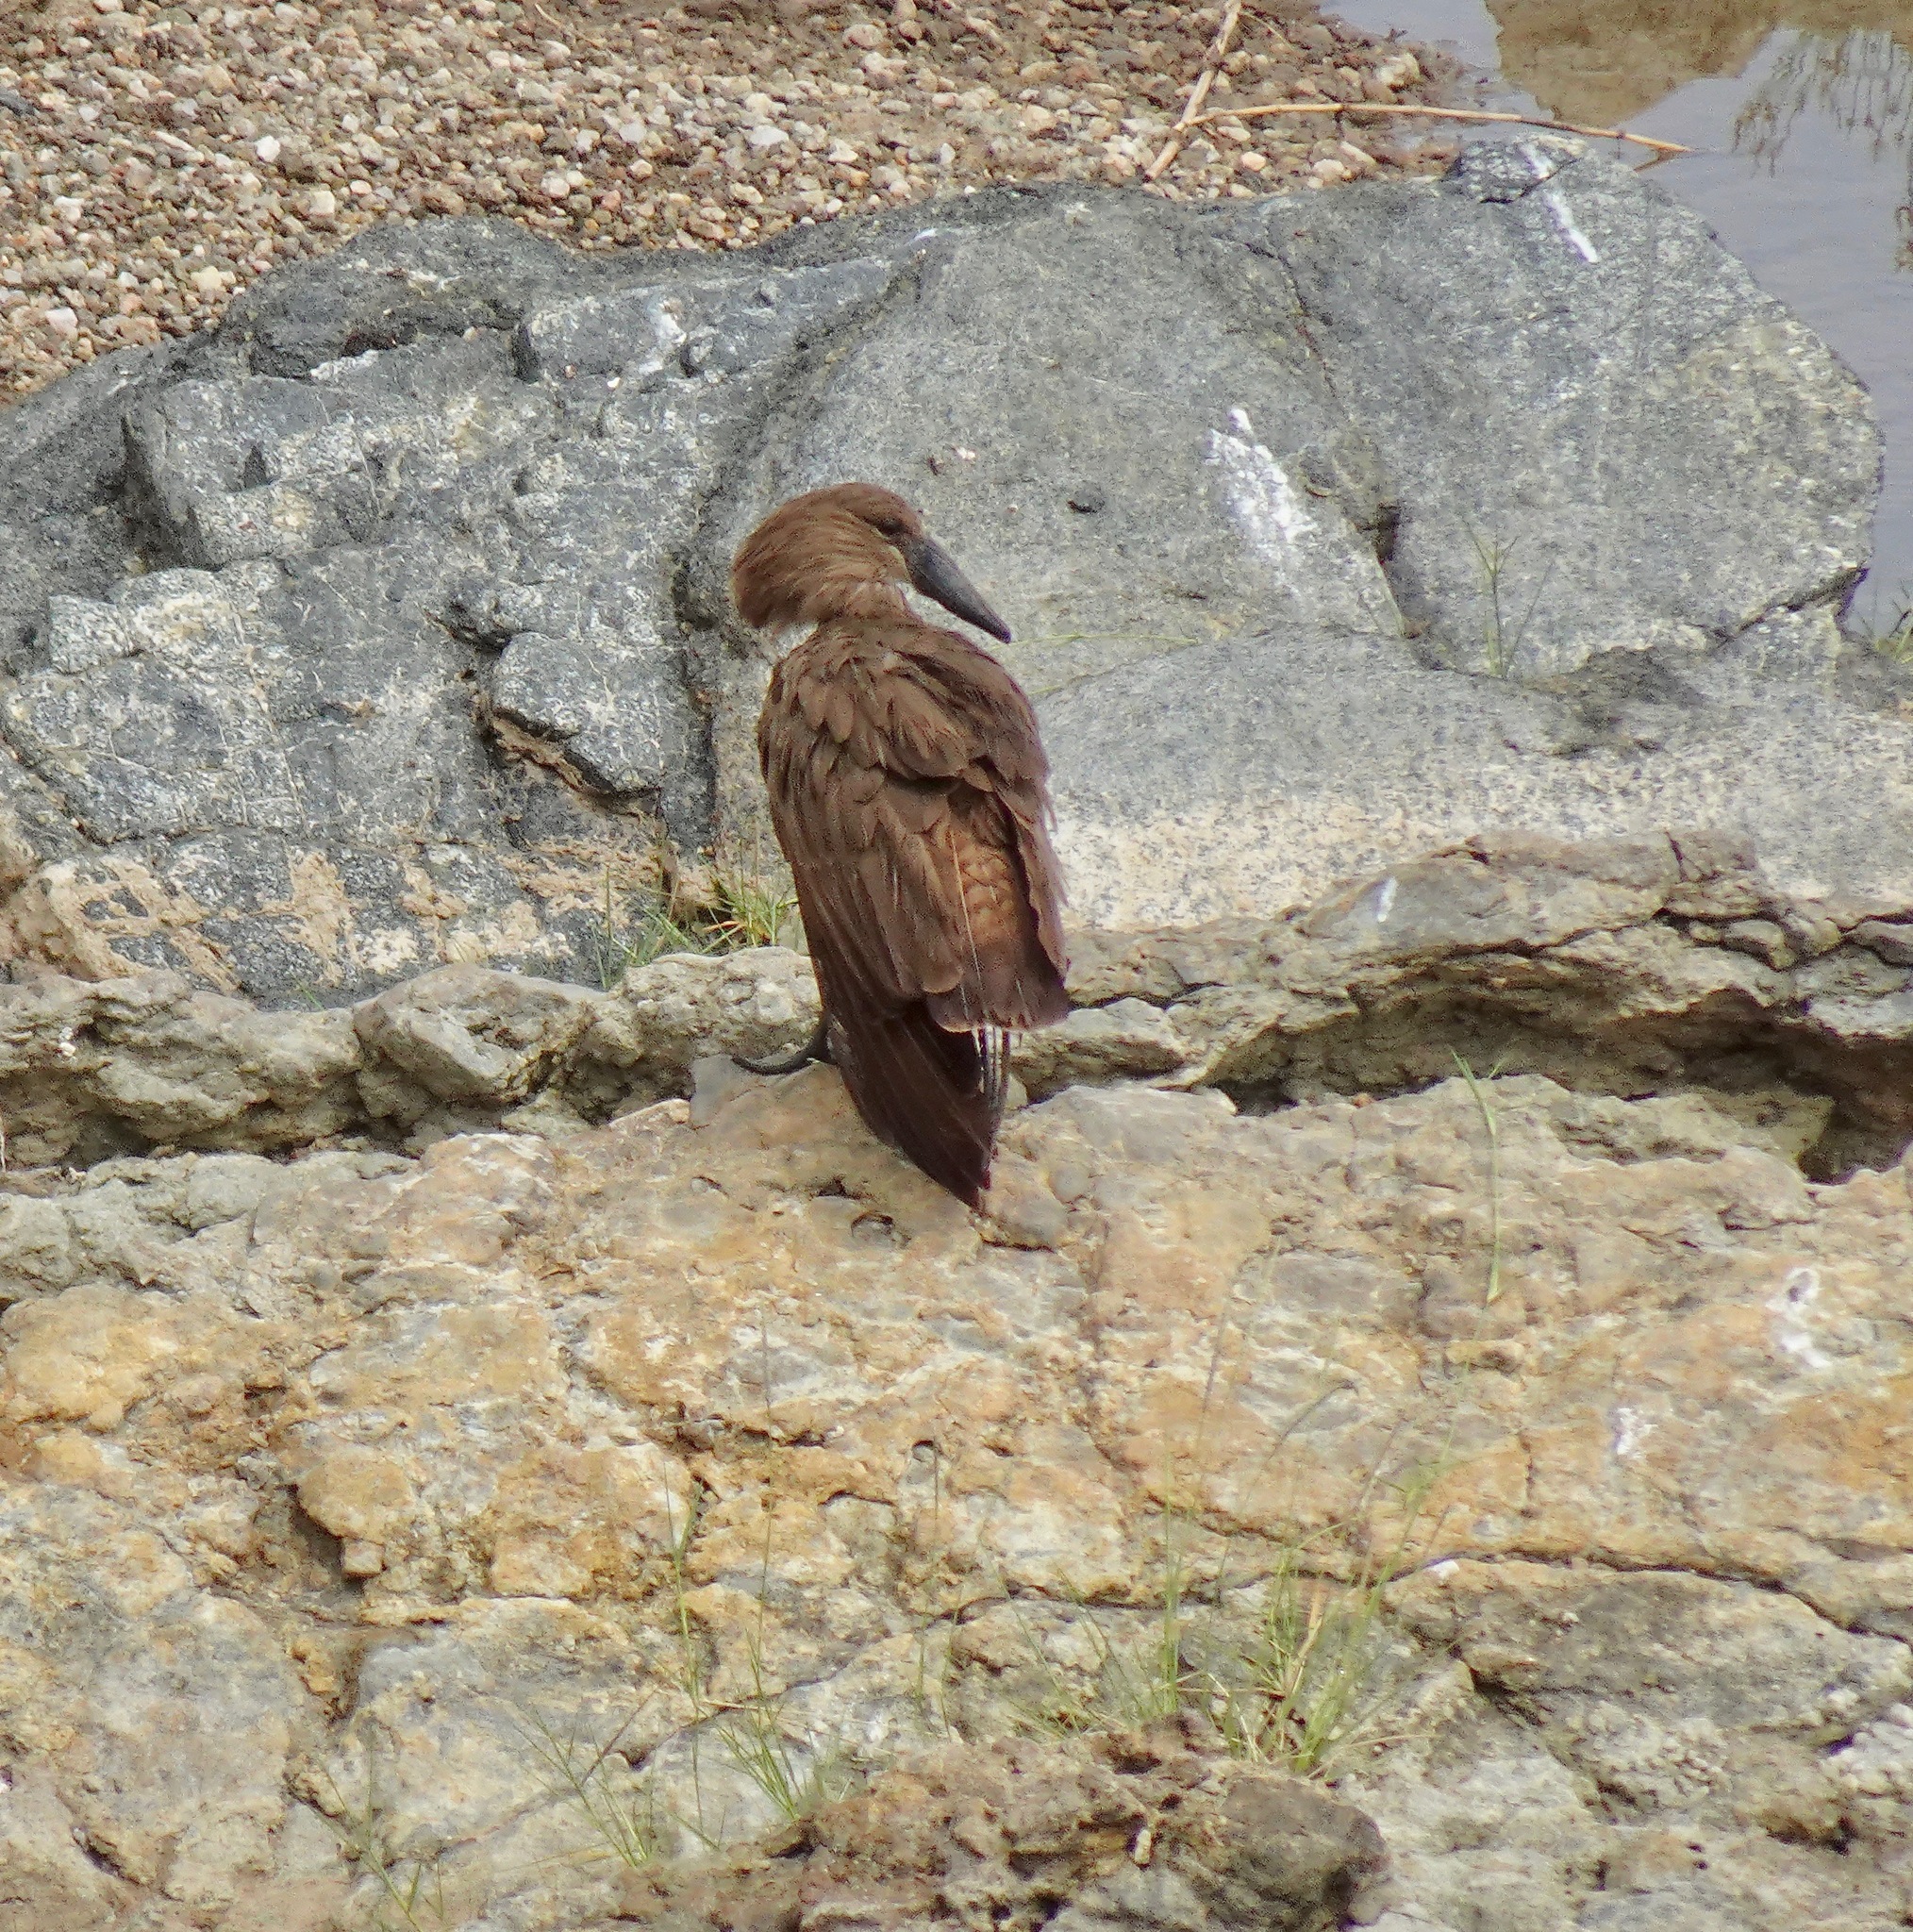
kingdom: Animalia
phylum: Chordata
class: Aves
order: Pelecaniformes
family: Scopidae
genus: Scopus
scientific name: Scopus umbretta
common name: Hamerkop
